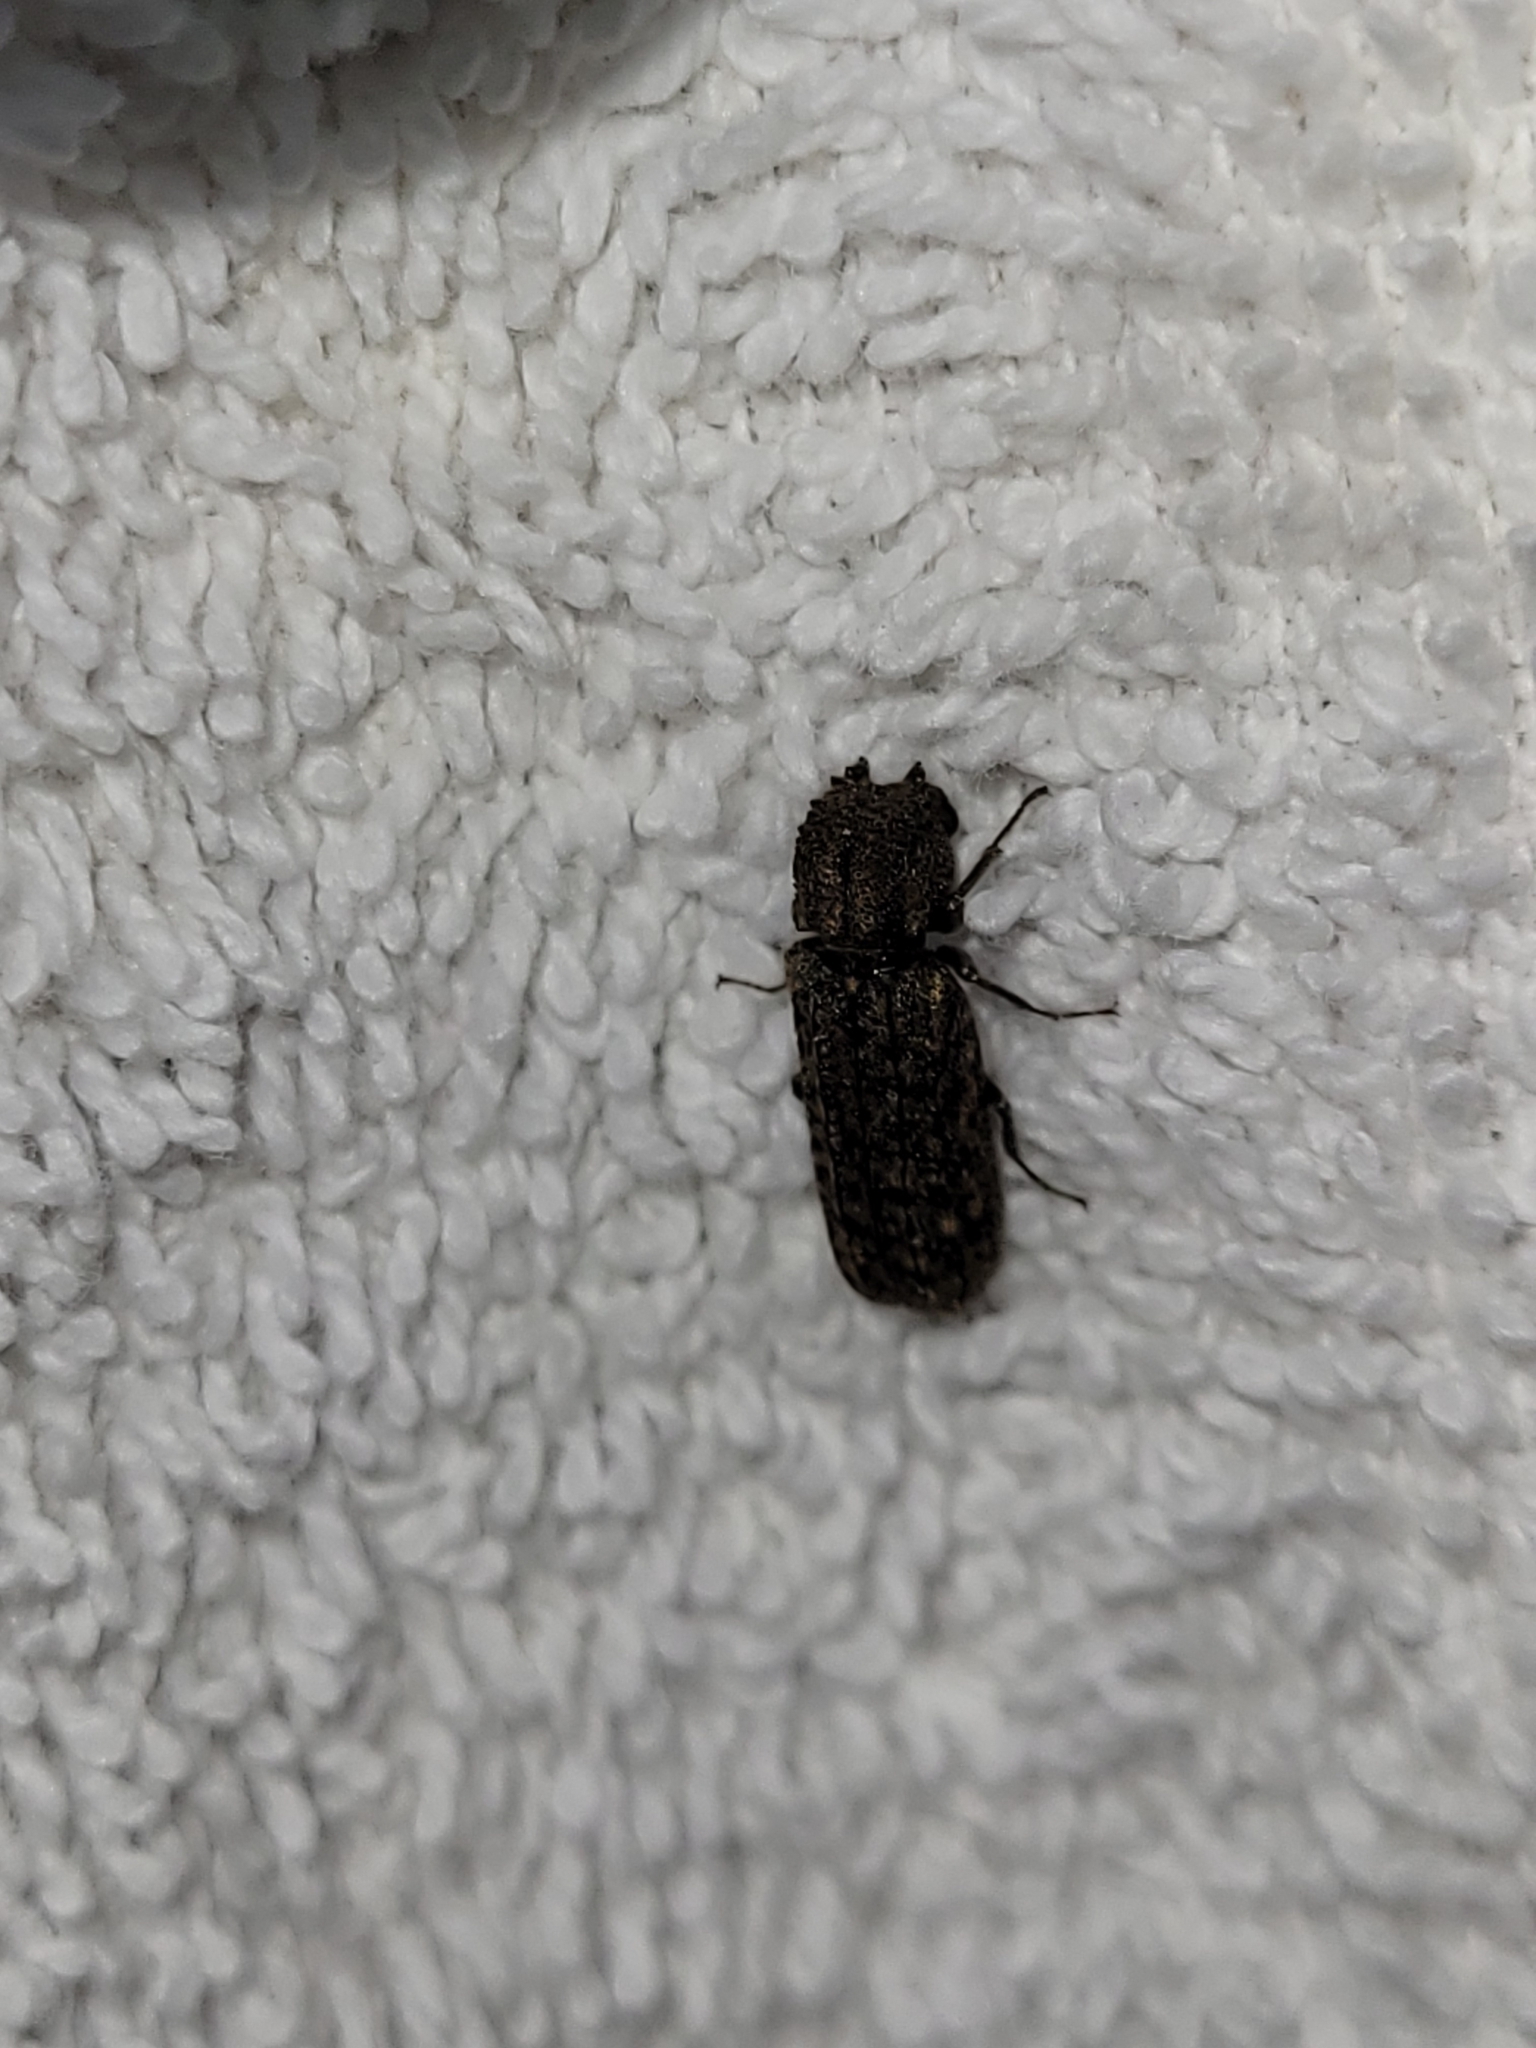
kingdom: Animalia
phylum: Arthropoda
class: Insecta
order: Coleoptera
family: Bostrichidae
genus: Lichenophanes
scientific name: Lichenophanes bicornis
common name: Two-horned powder-post beetle
